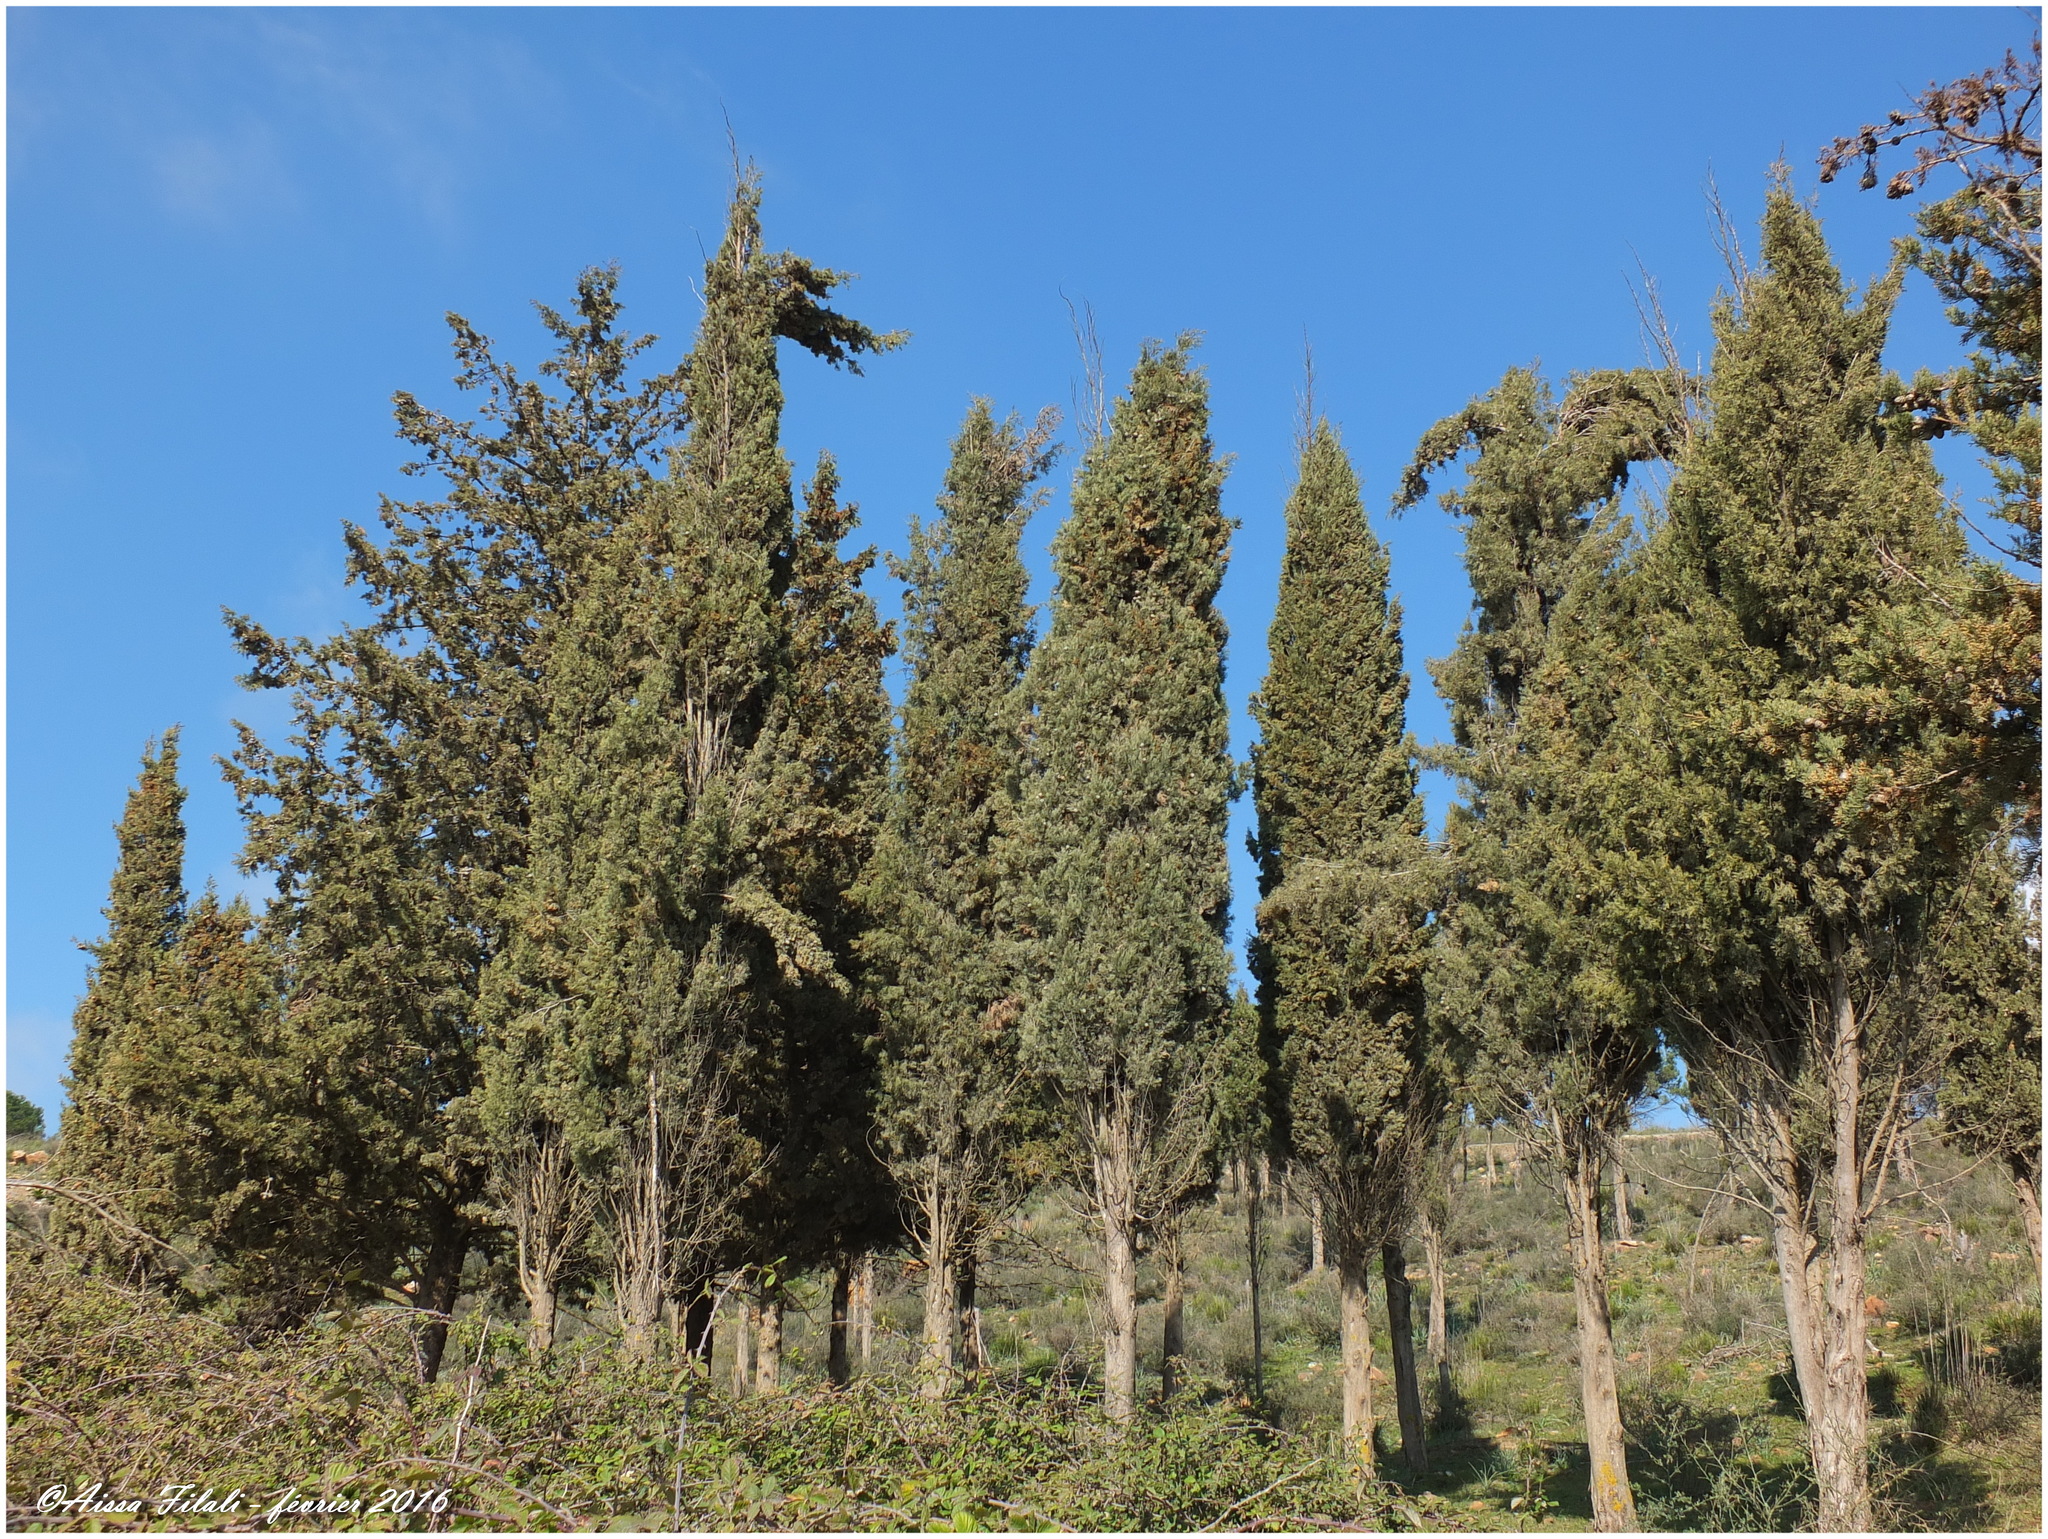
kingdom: Plantae
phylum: Tracheophyta
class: Pinopsida
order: Pinales
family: Cupressaceae
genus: Cupressus
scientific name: Cupressus sempervirens
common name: Italian cypress
